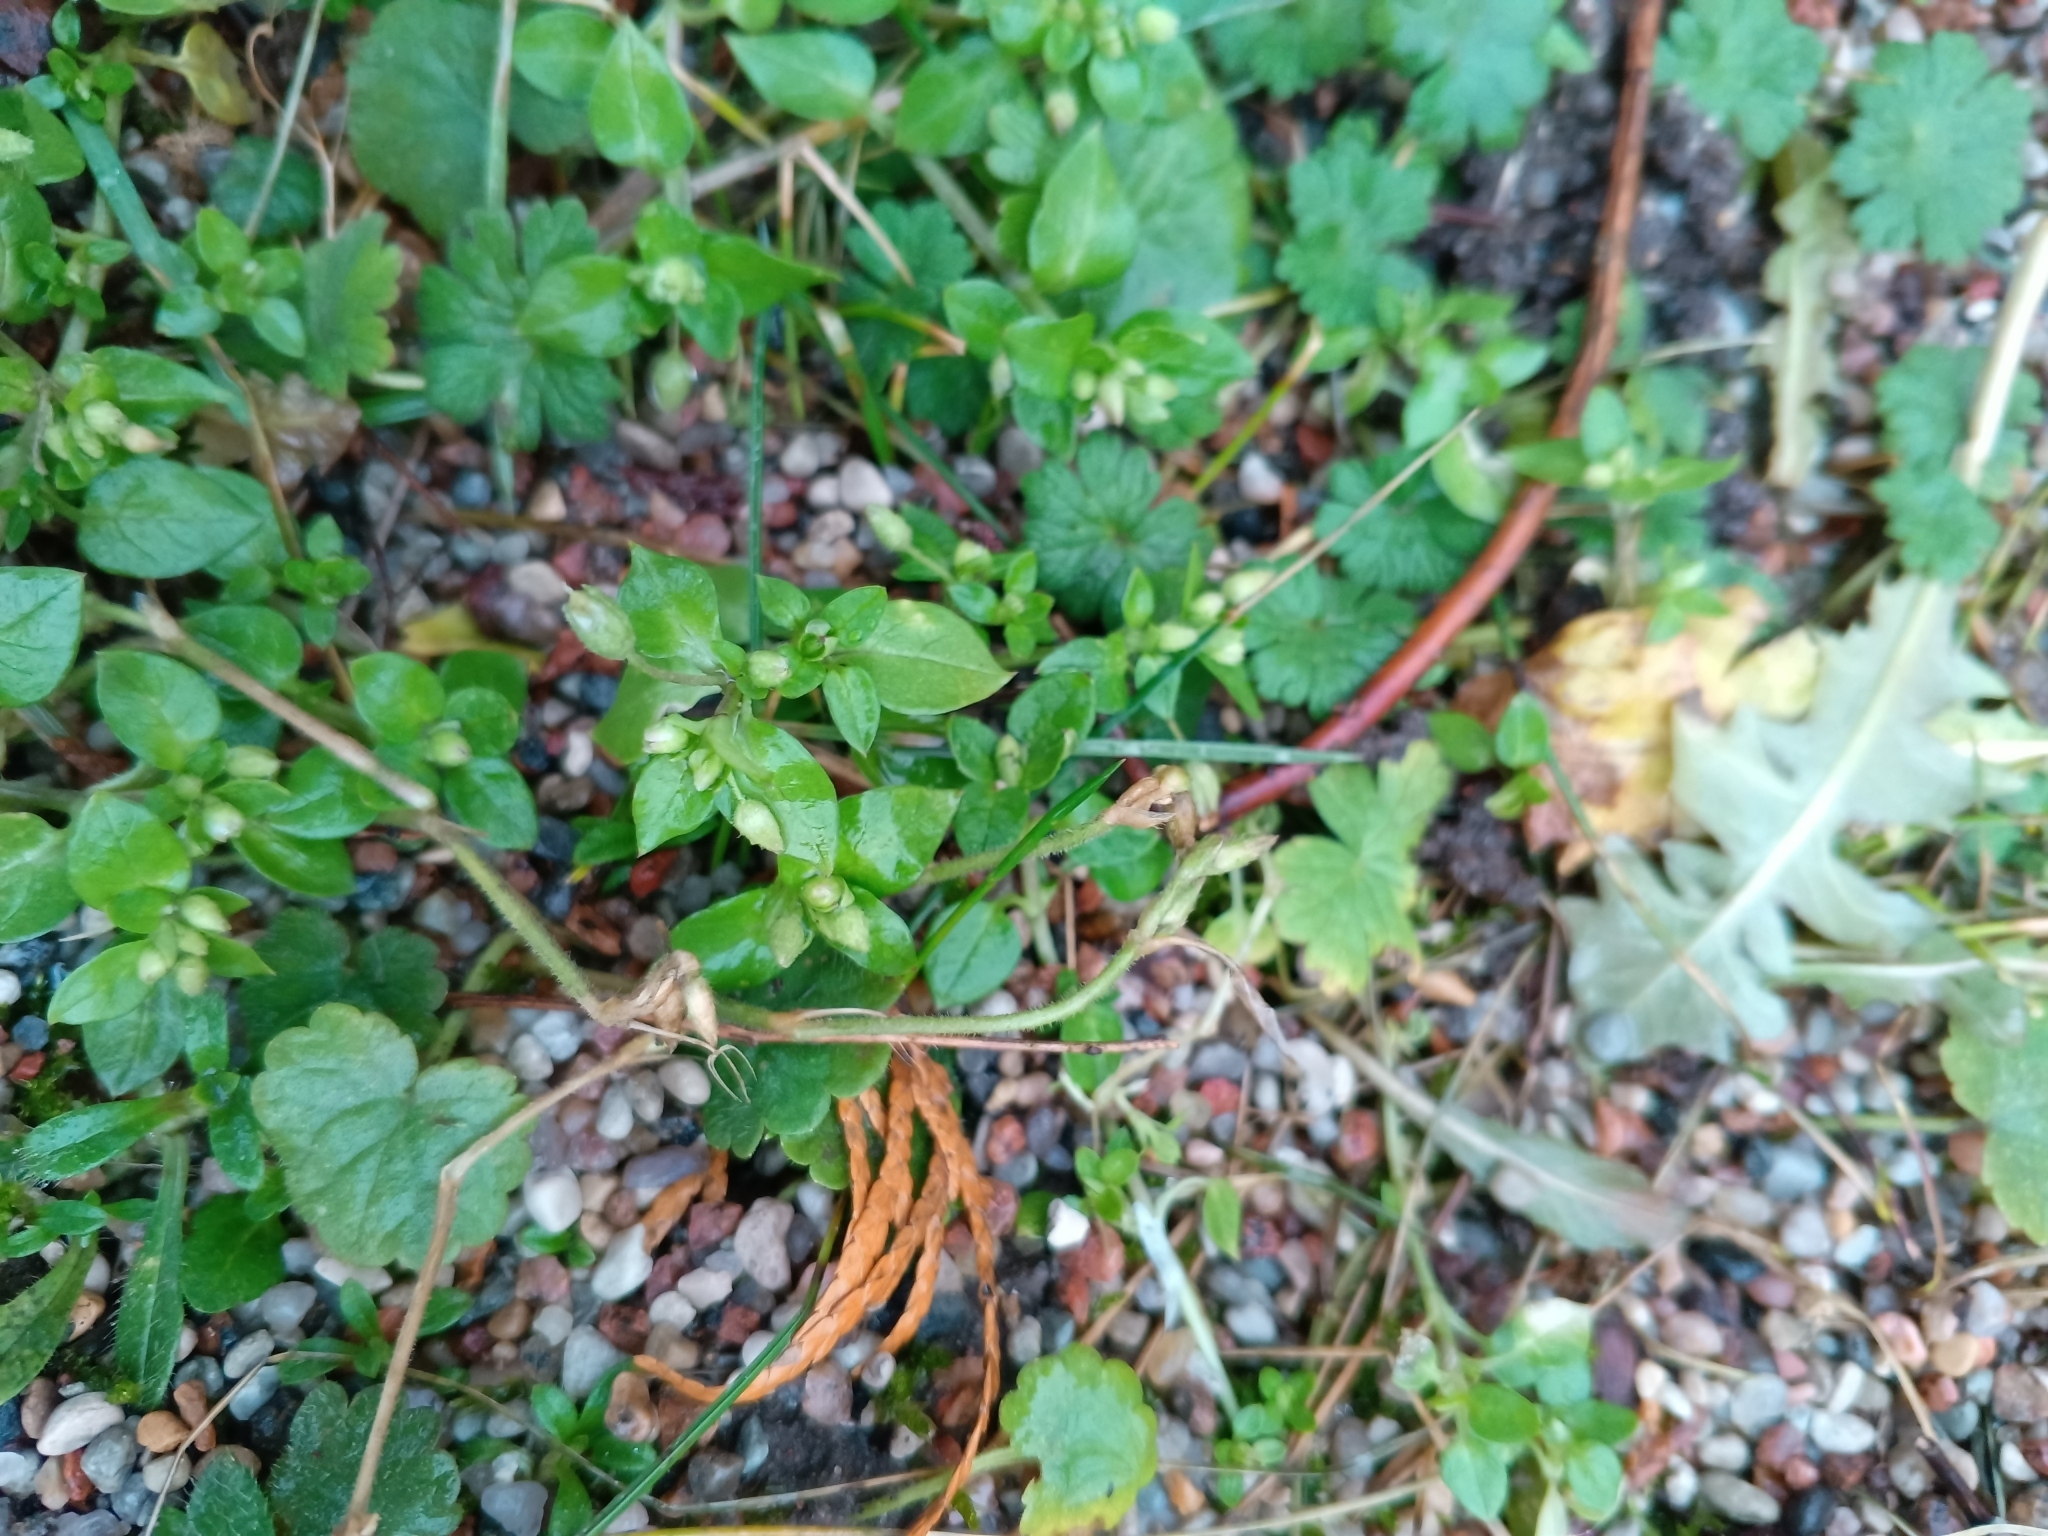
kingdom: Plantae
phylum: Tracheophyta
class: Magnoliopsida
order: Caryophyllales
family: Caryophyllaceae
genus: Stellaria
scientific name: Stellaria media
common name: Common chickweed
